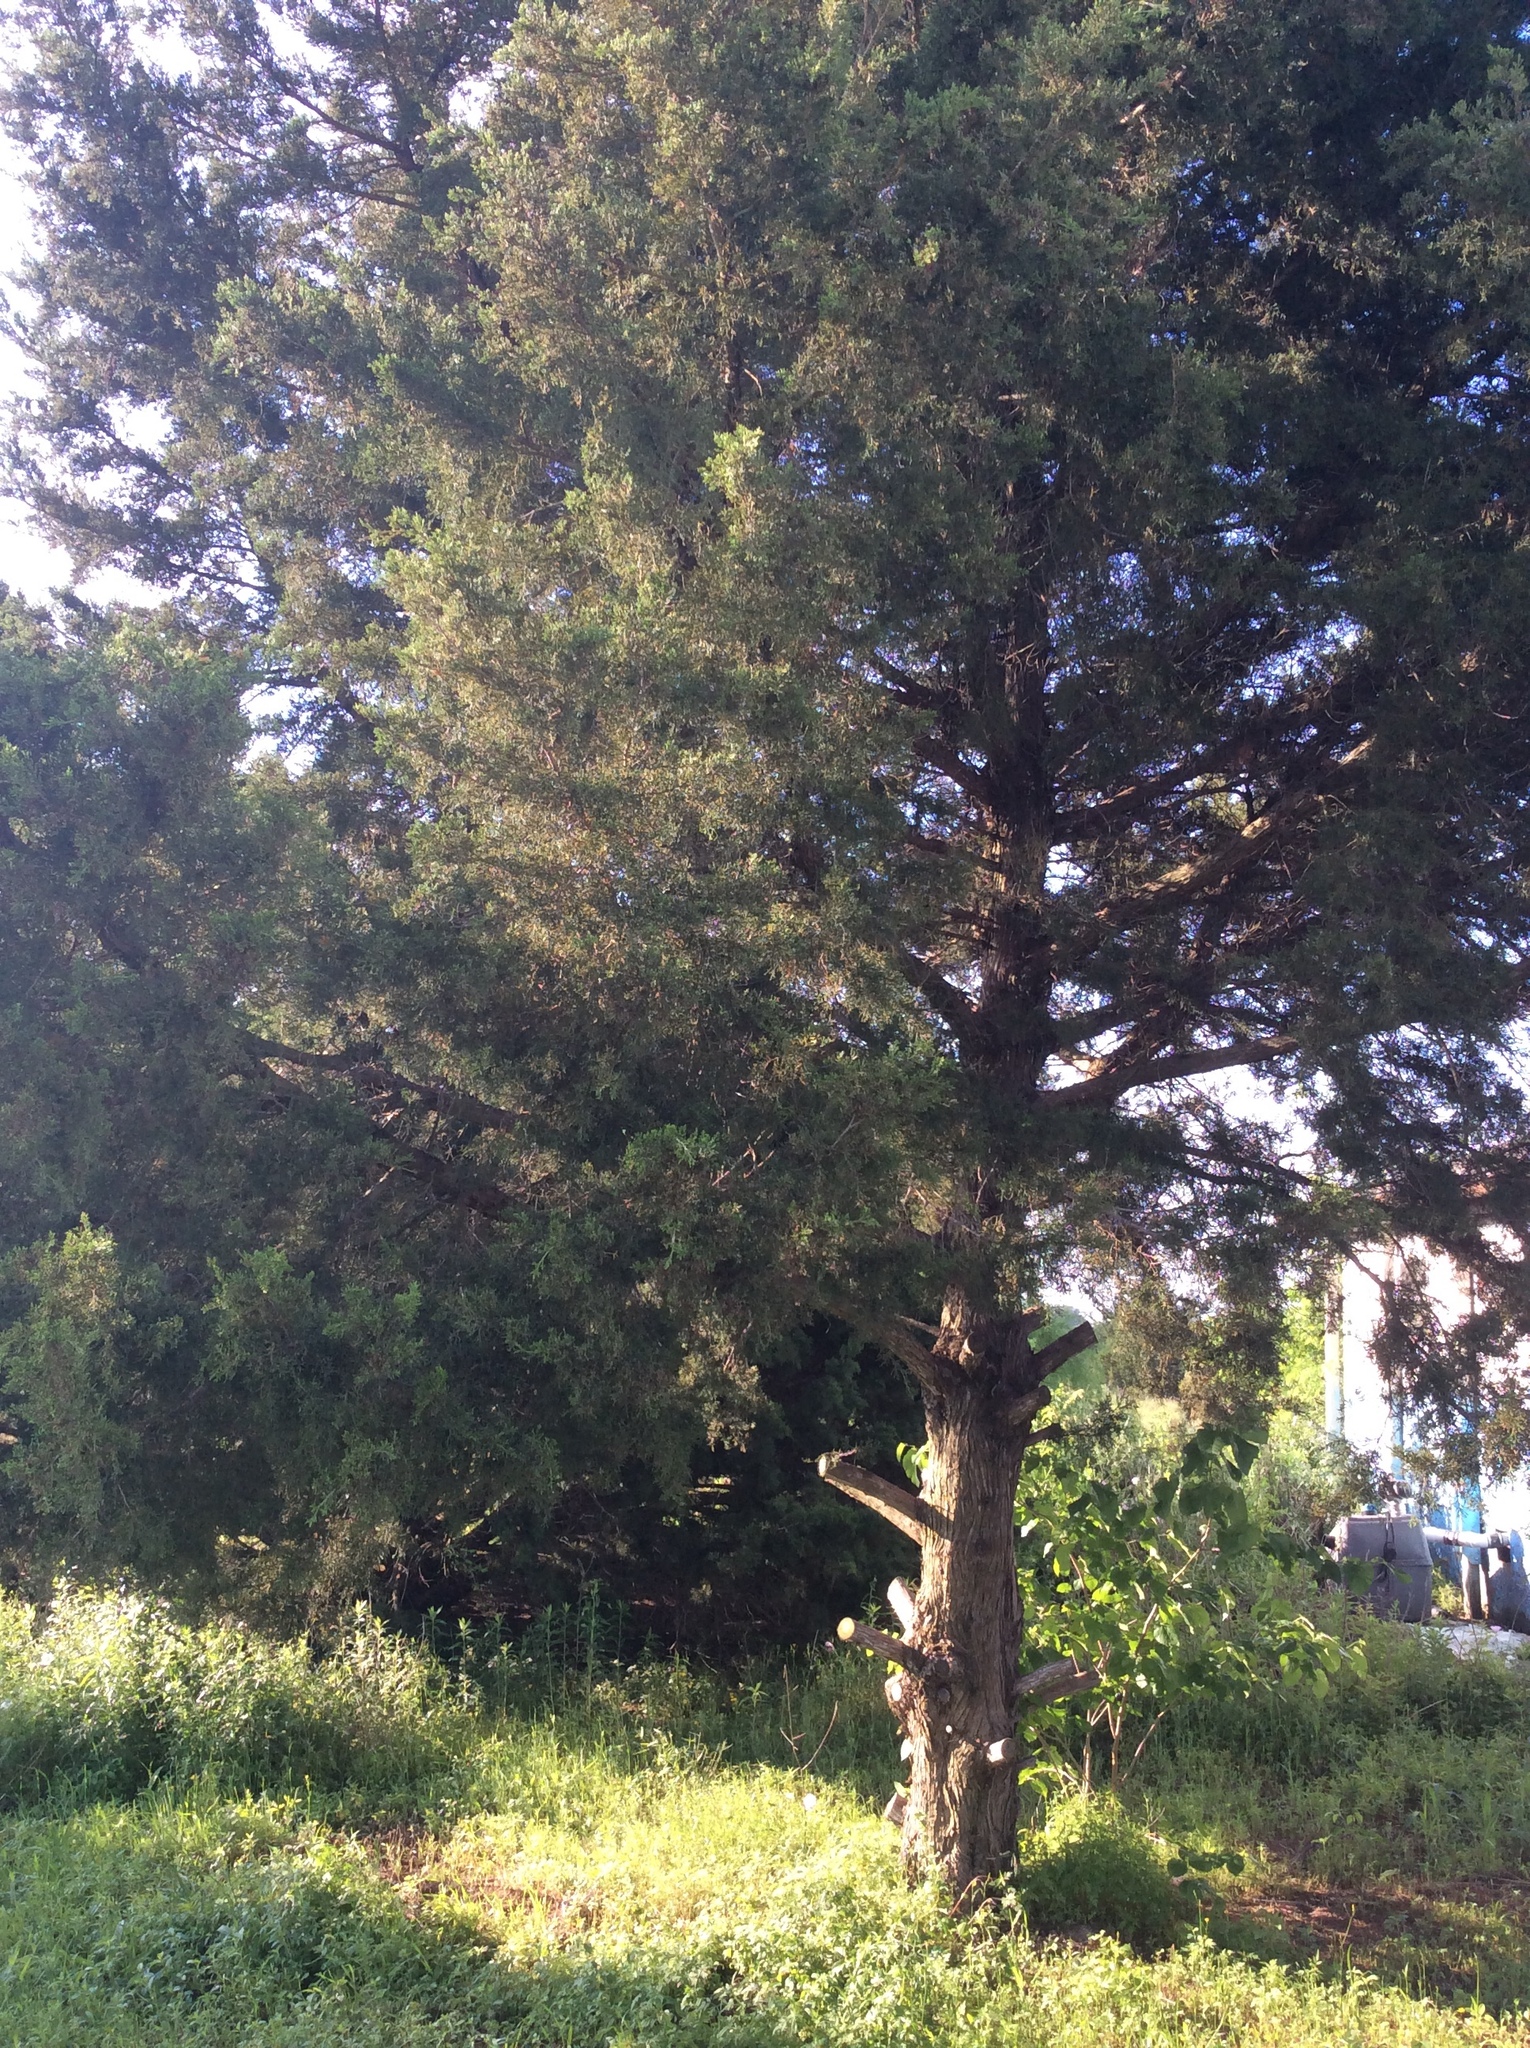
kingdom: Plantae
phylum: Tracheophyta
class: Pinopsida
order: Pinales
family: Cupressaceae
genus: Juniperus
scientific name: Juniperus virginiana
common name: Red juniper
